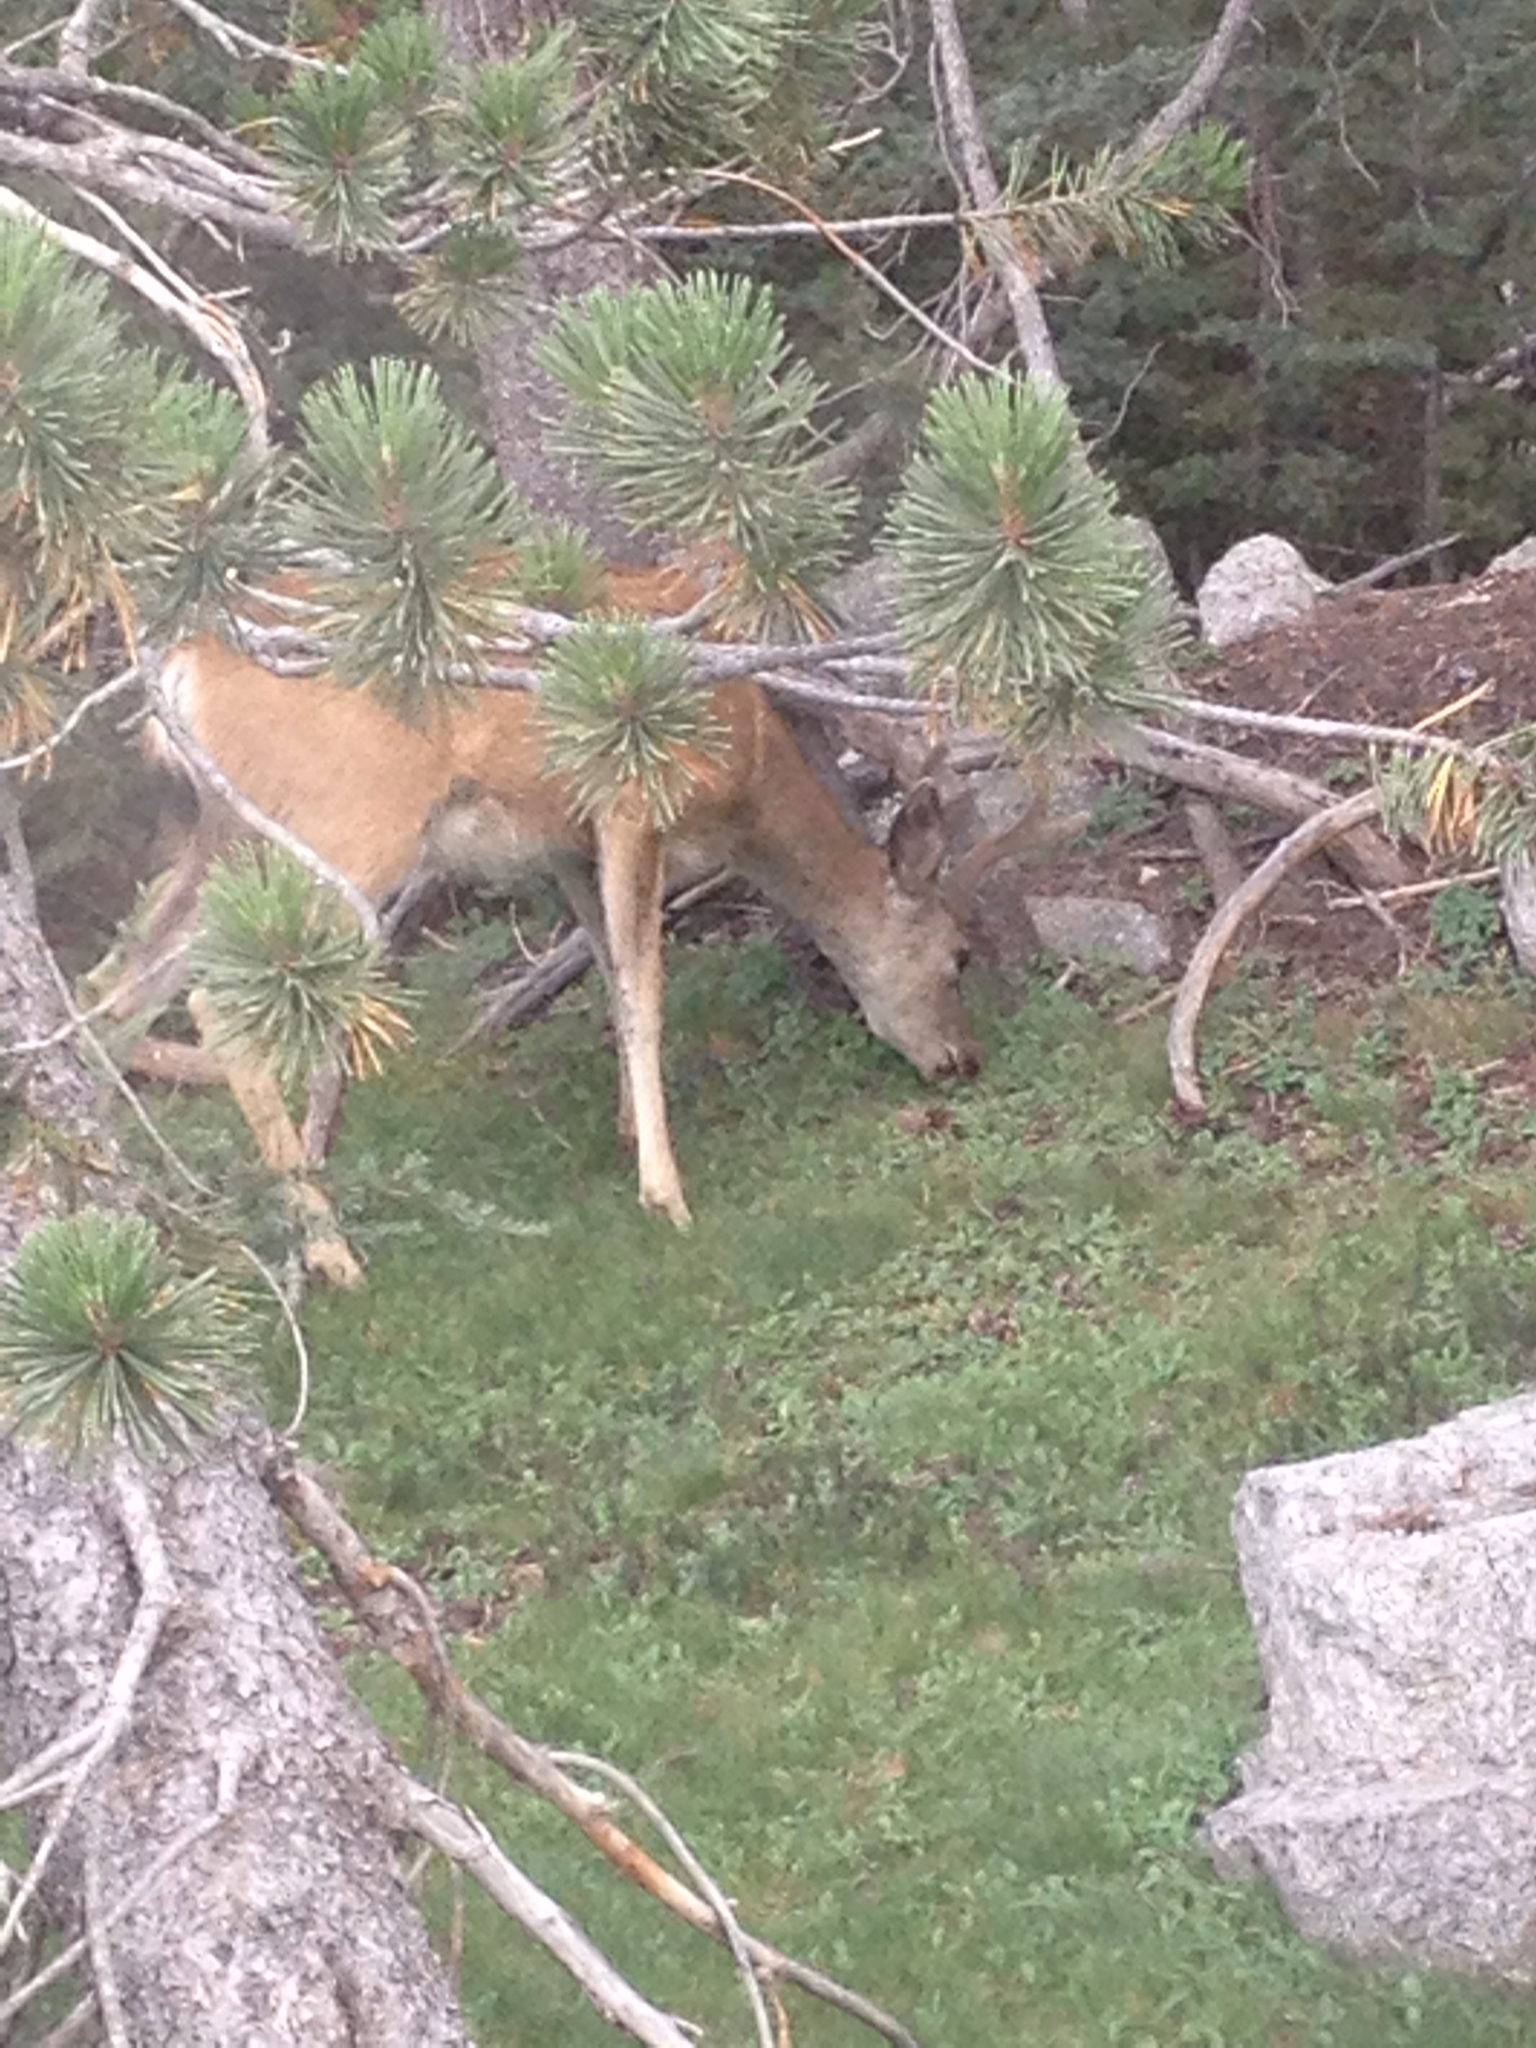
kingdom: Animalia
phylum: Chordata
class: Mammalia
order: Artiodactyla
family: Cervidae
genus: Odocoileus
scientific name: Odocoileus hemionus
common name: Mule deer
